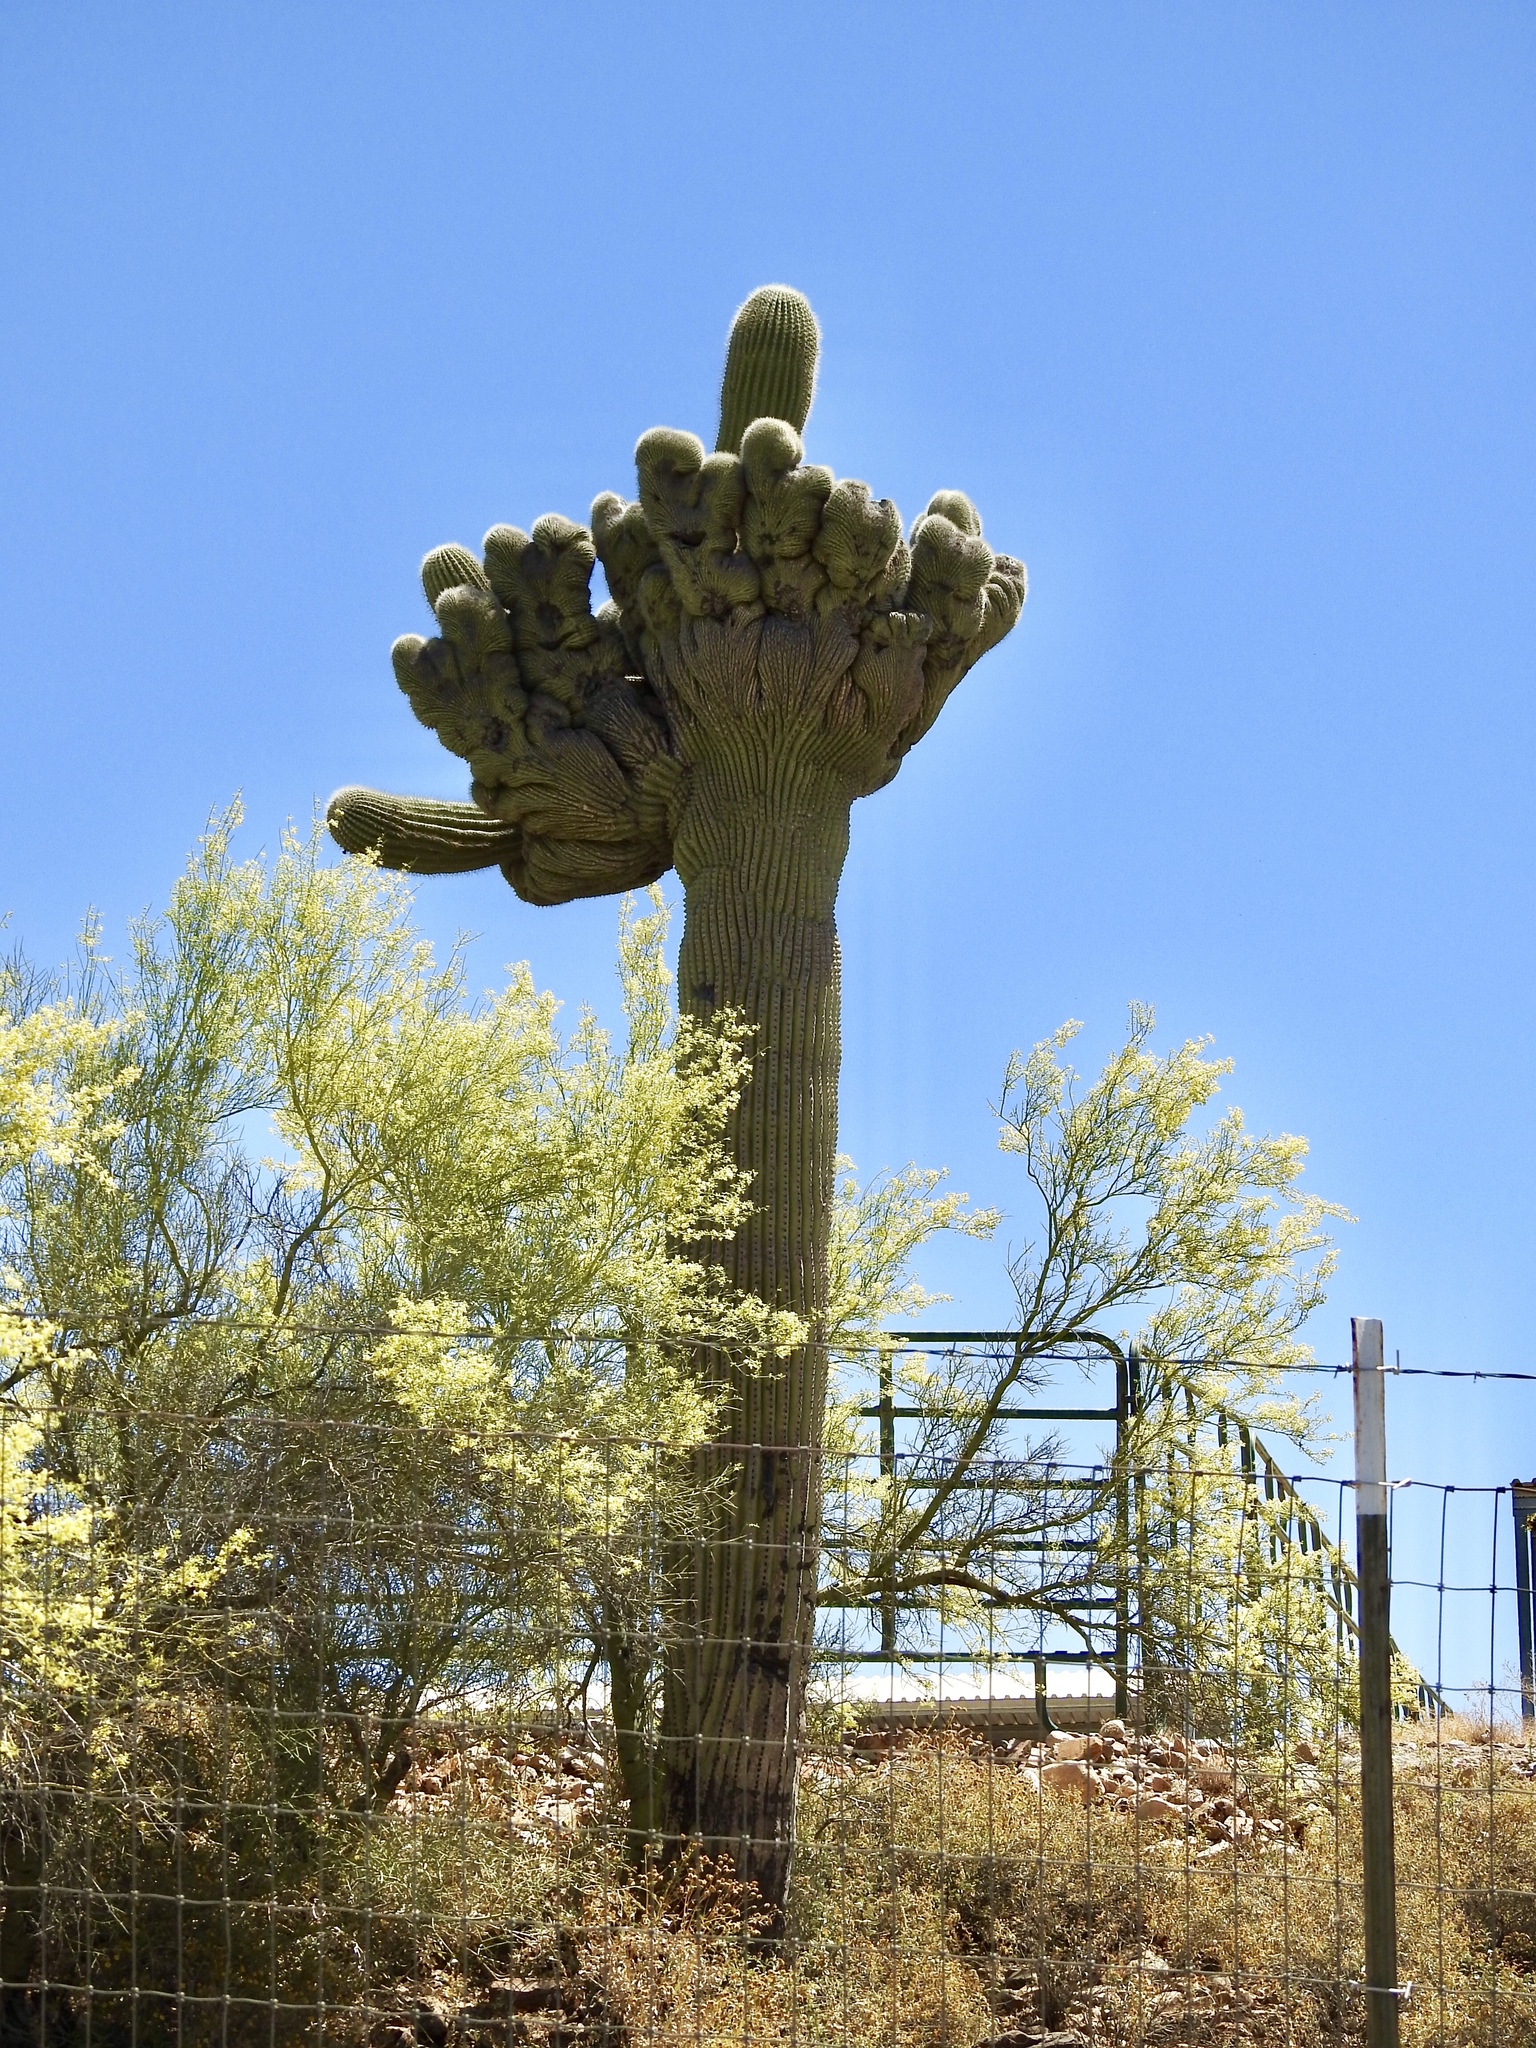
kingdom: Plantae
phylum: Tracheophyta
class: Magnoliopsida
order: Caryophyllales
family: Cactaceae
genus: Carnegiea
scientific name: Carnegiea gigantea
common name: Saguaro
